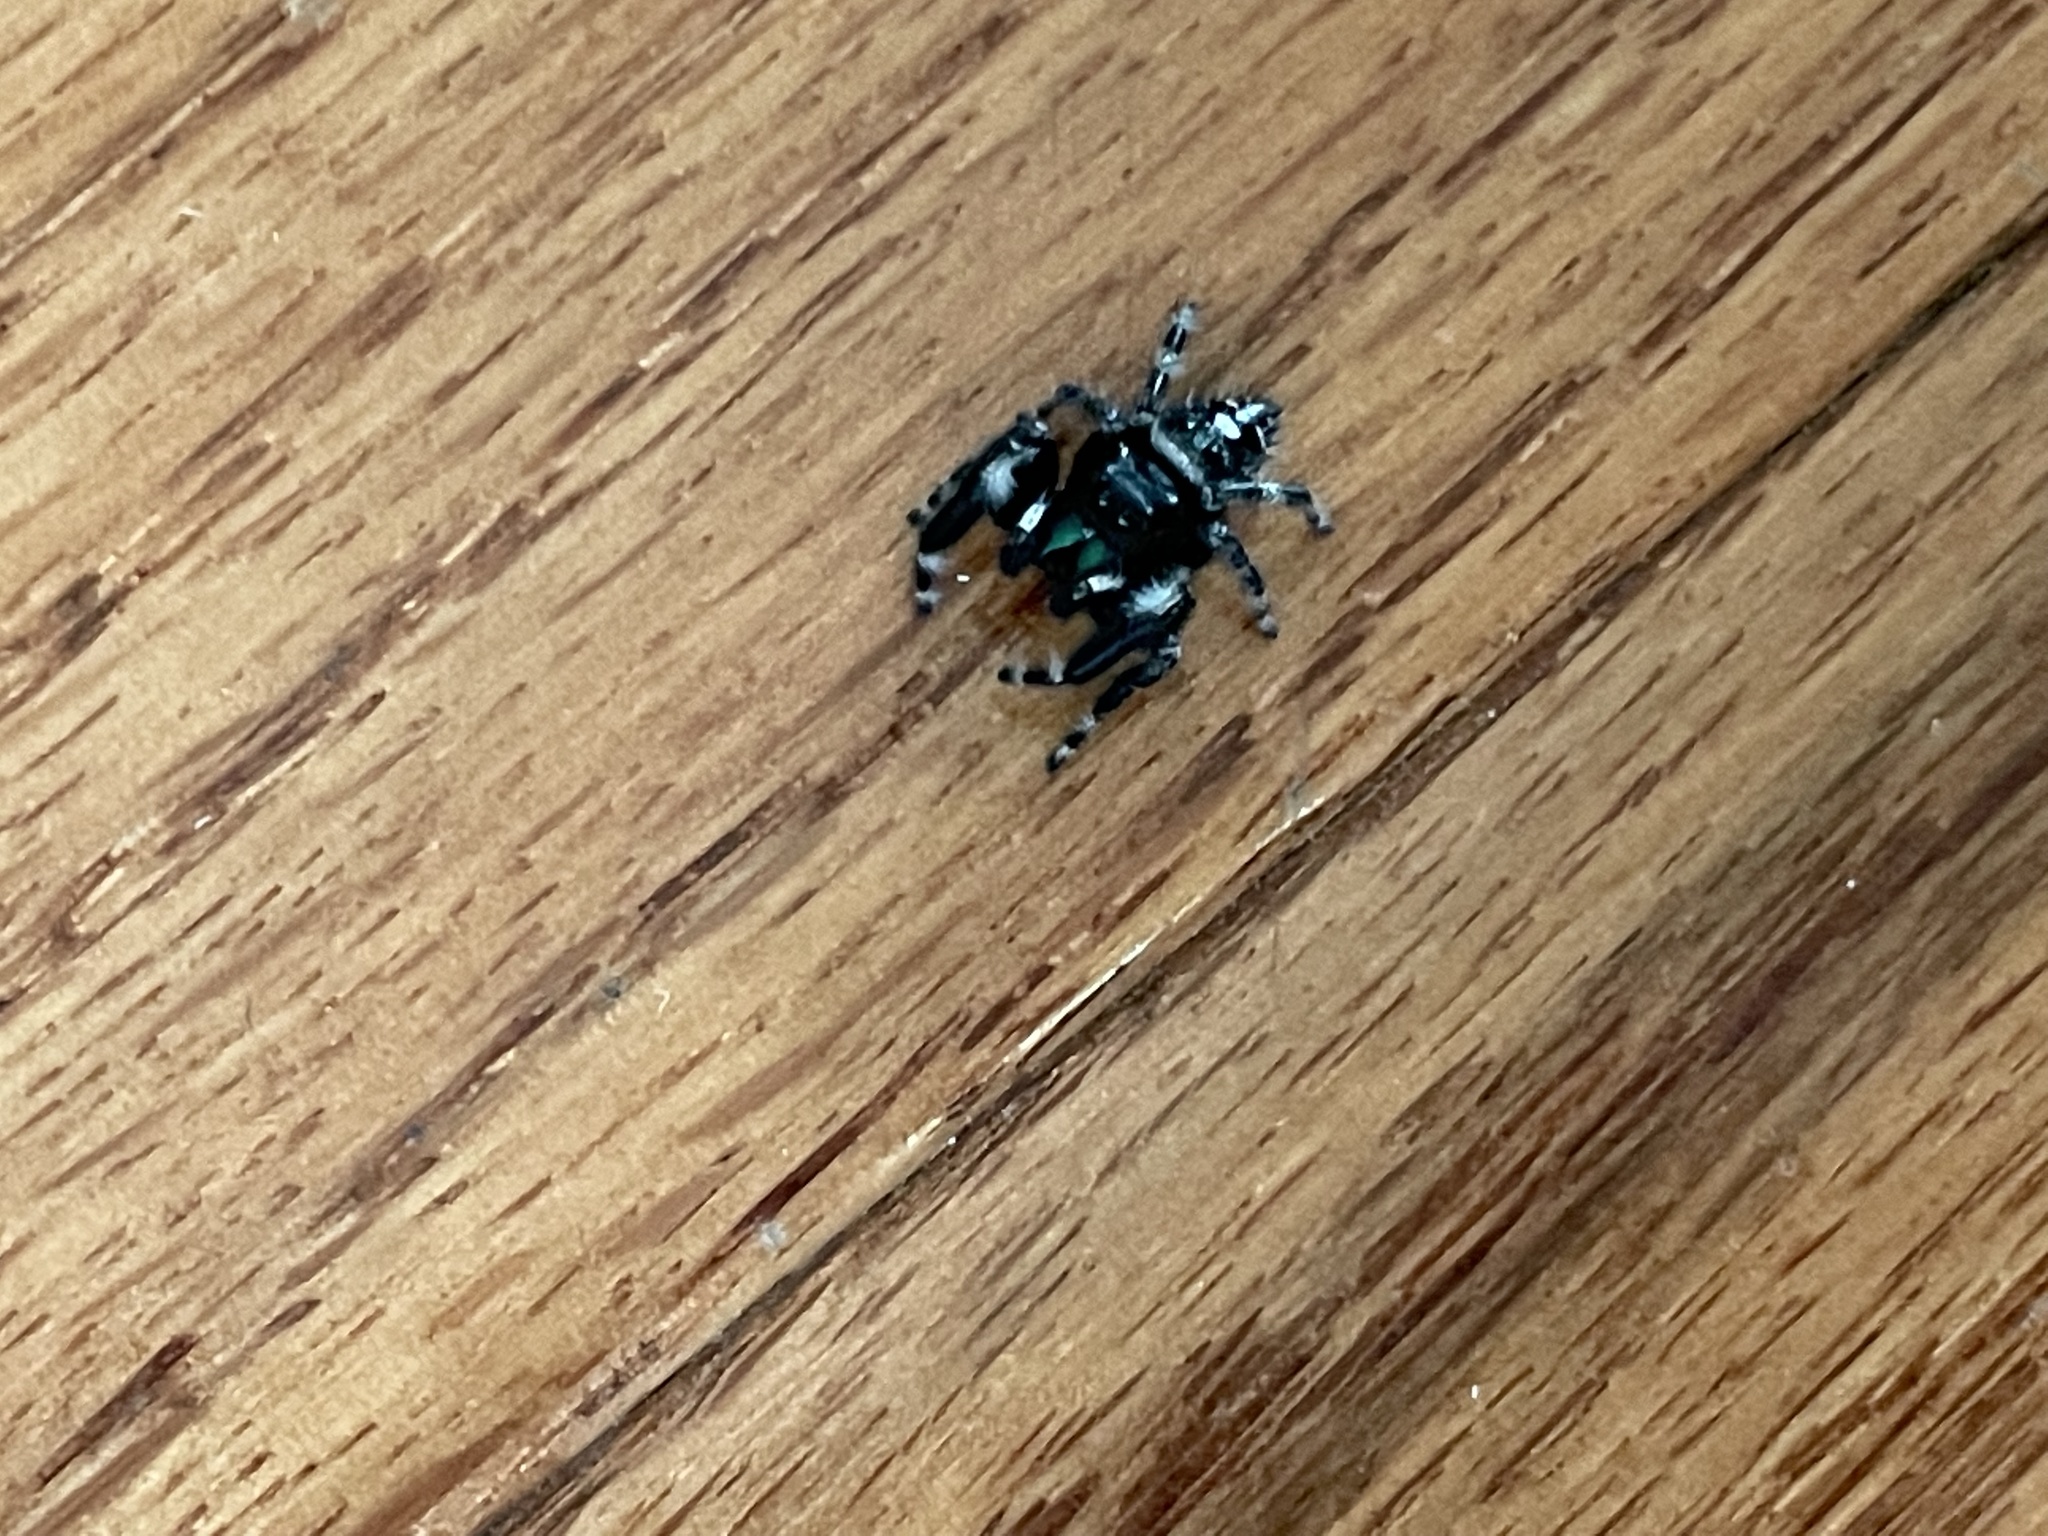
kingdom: Animalia
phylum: Arthropoda
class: Arachnida
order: Araneae
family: Salticidae
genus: Phidippus
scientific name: Phidippus audax
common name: Bold jumper
